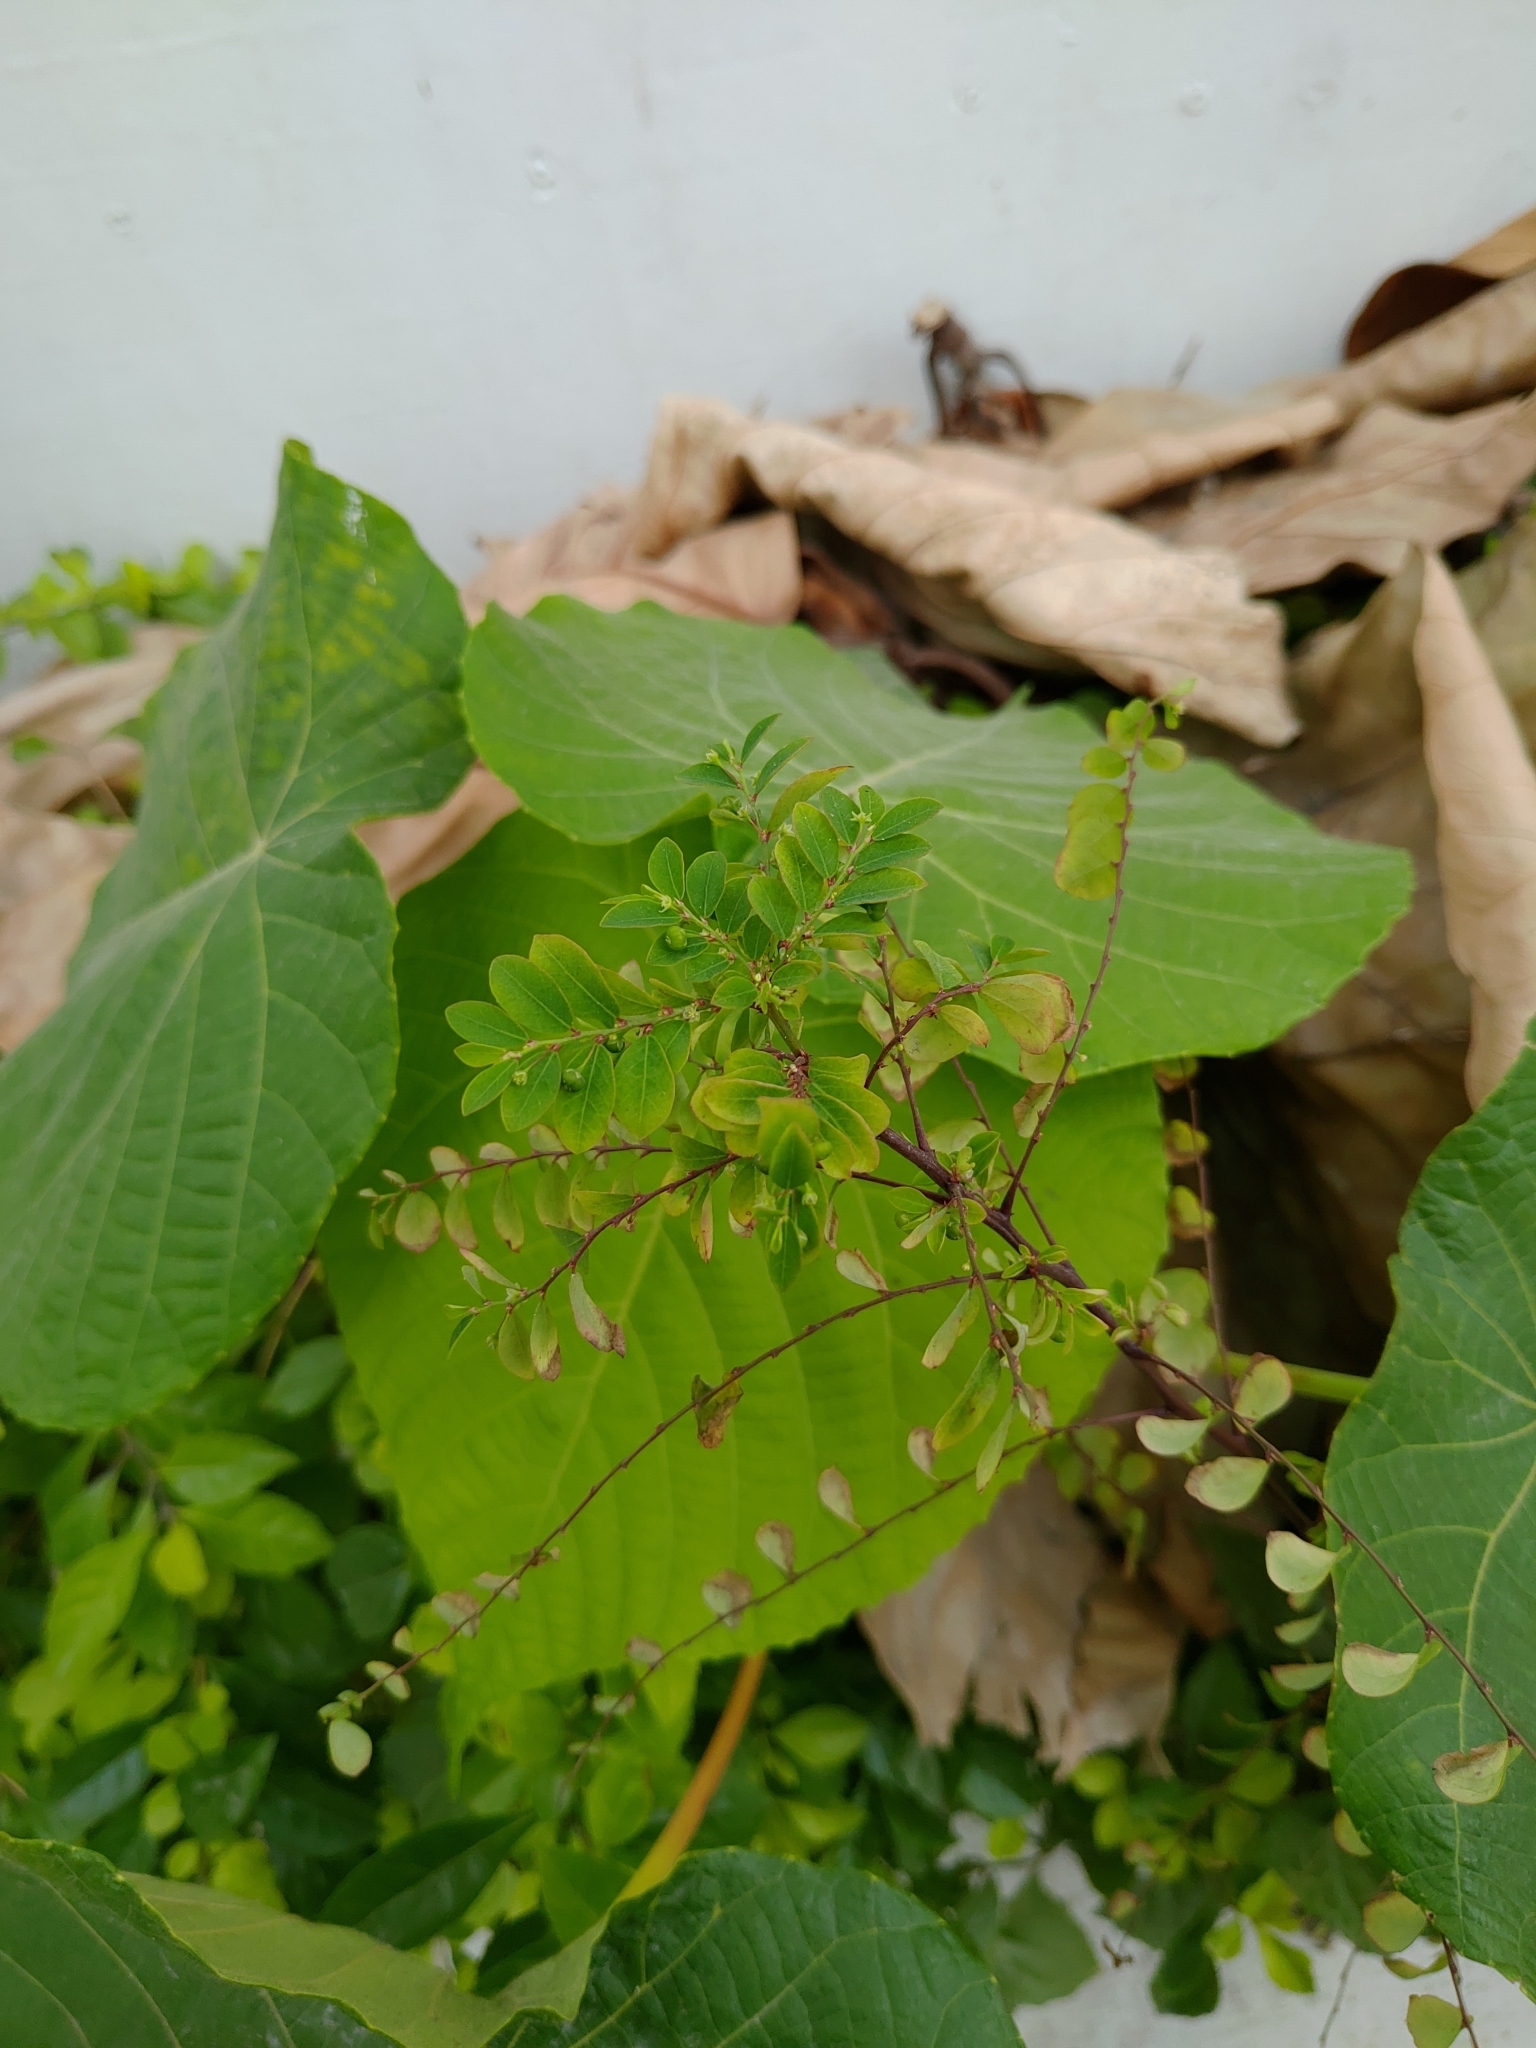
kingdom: Plantae
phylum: Tracheophyta
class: Magnoliopsida
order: Malpighiales
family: Phyllanthaceae
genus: Phyllanthus
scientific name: Phyllanthus tenellus
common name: Mascarene island leaf-flower
